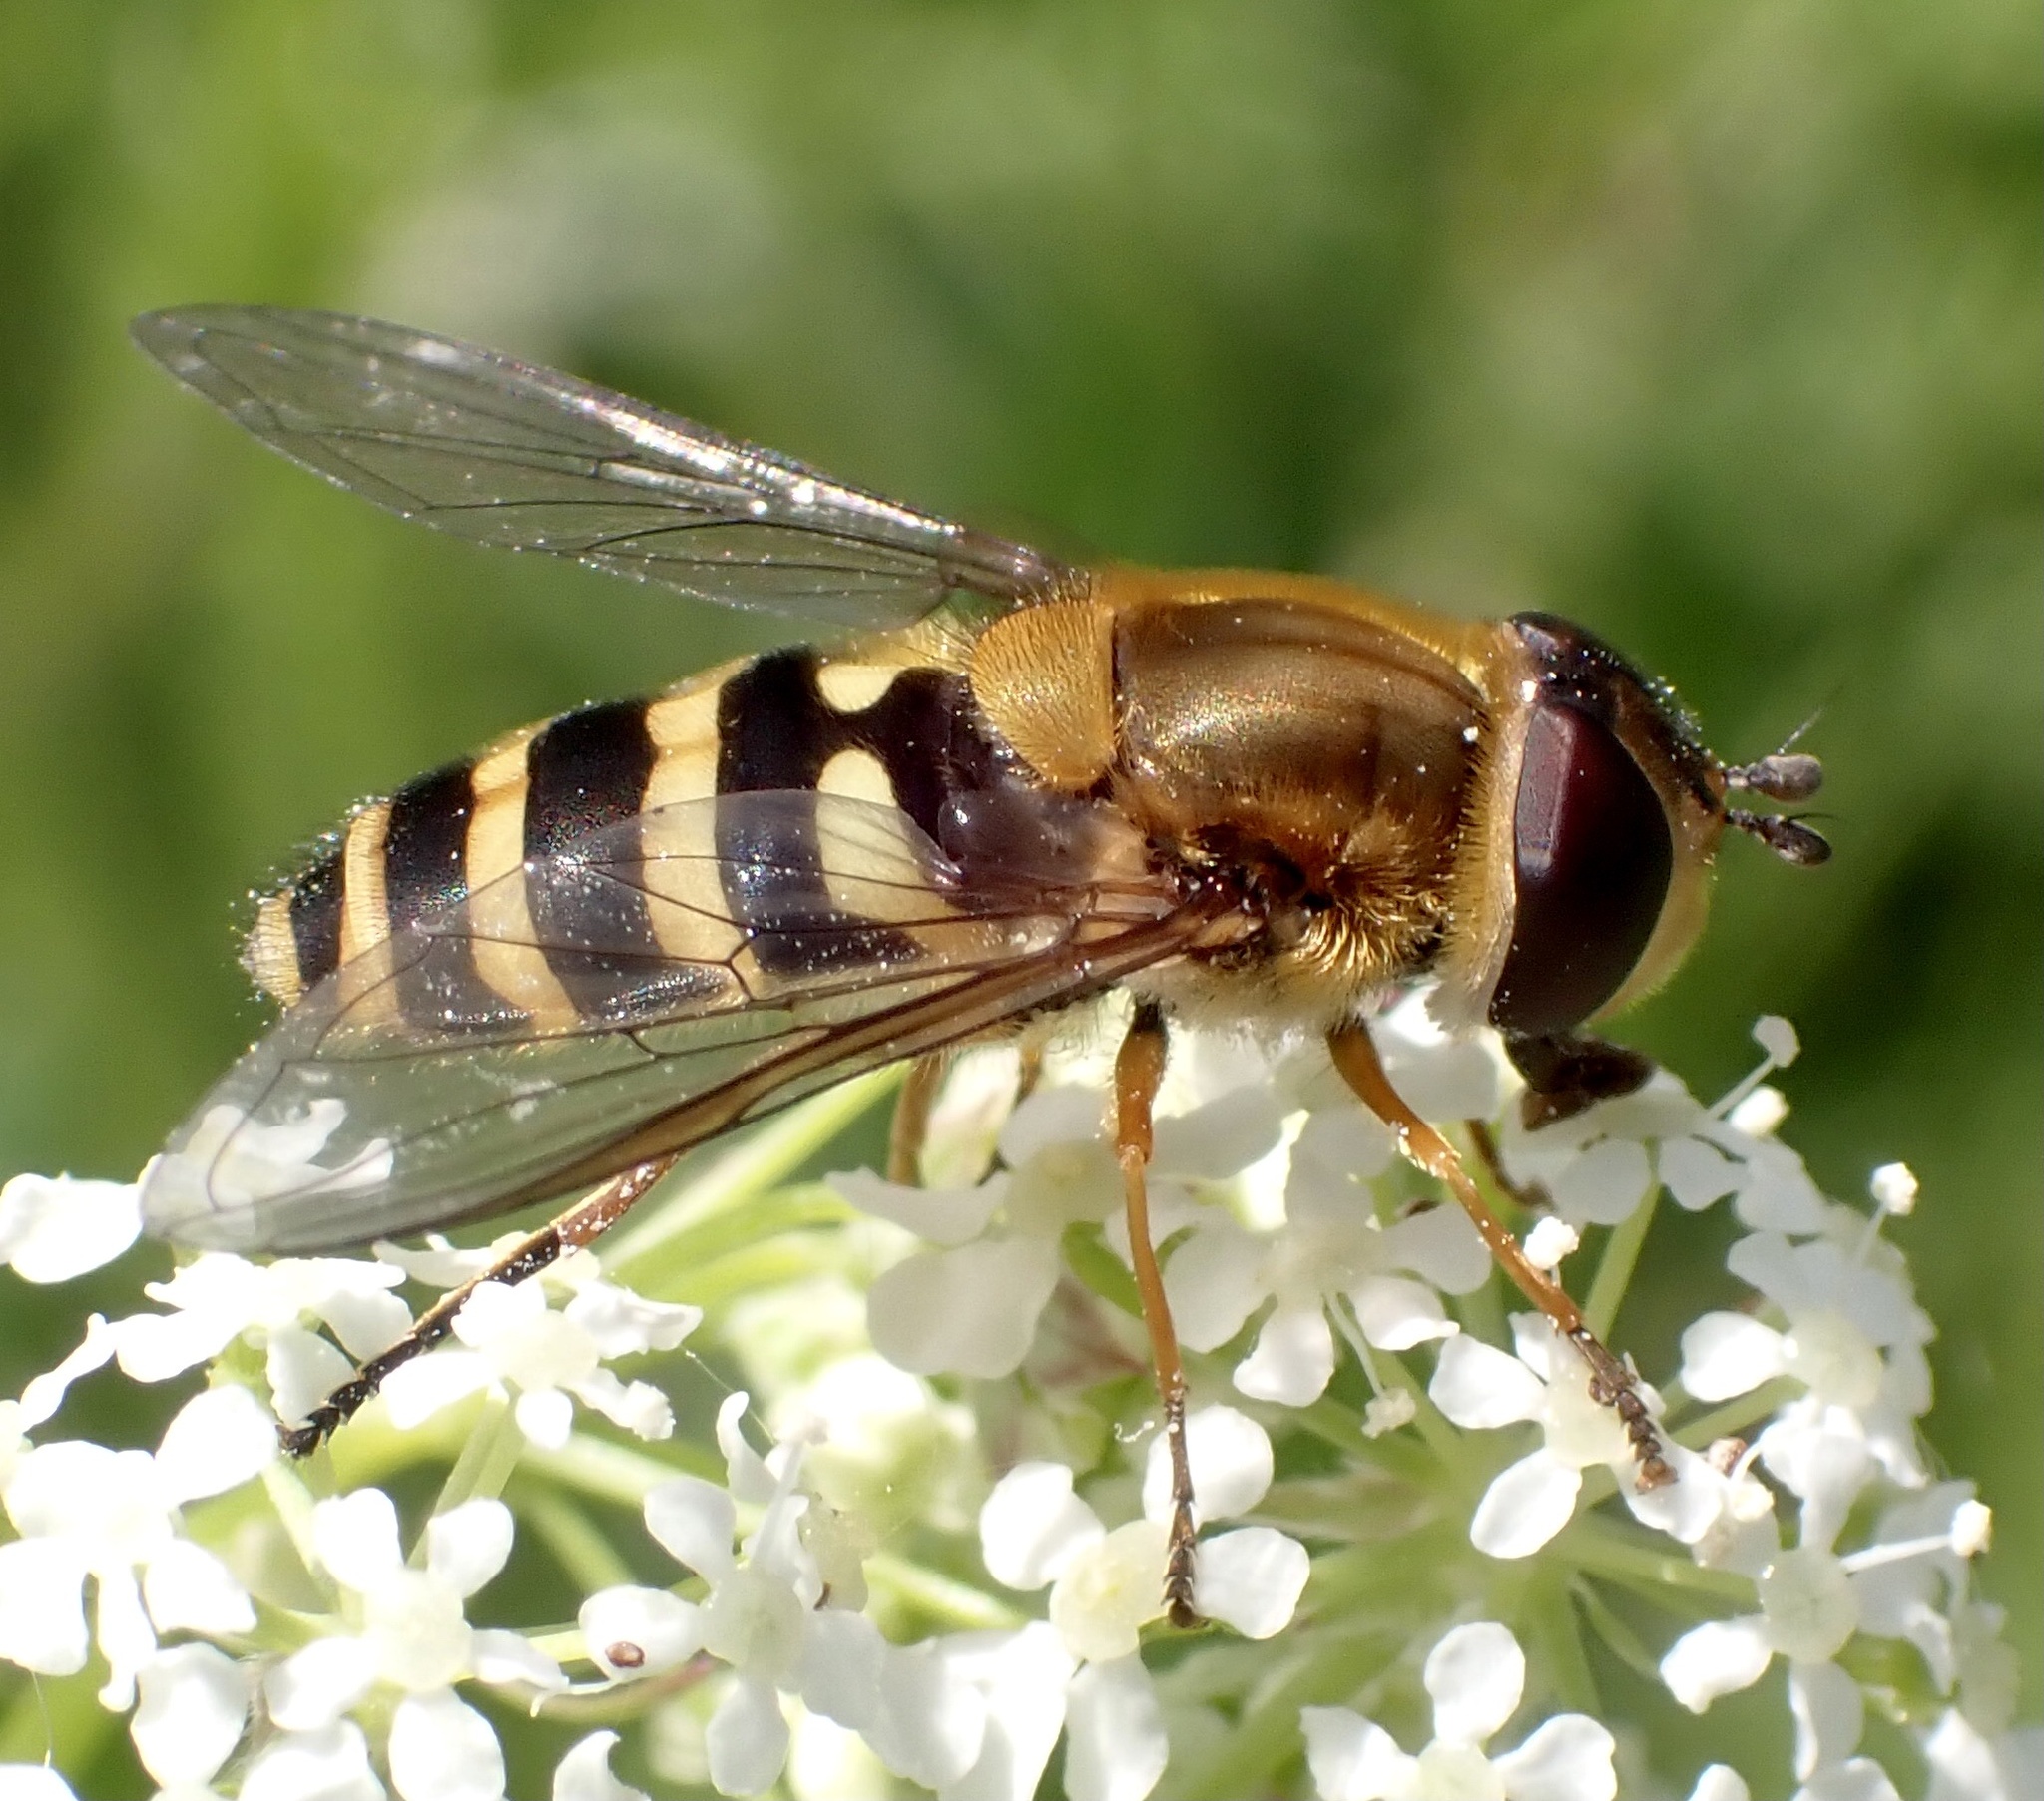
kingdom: Animalia
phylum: Arthropoda
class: Insecta
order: Diptera
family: Syrphidae
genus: Syrphus
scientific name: Syrphus ribesii
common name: Common flower fly
